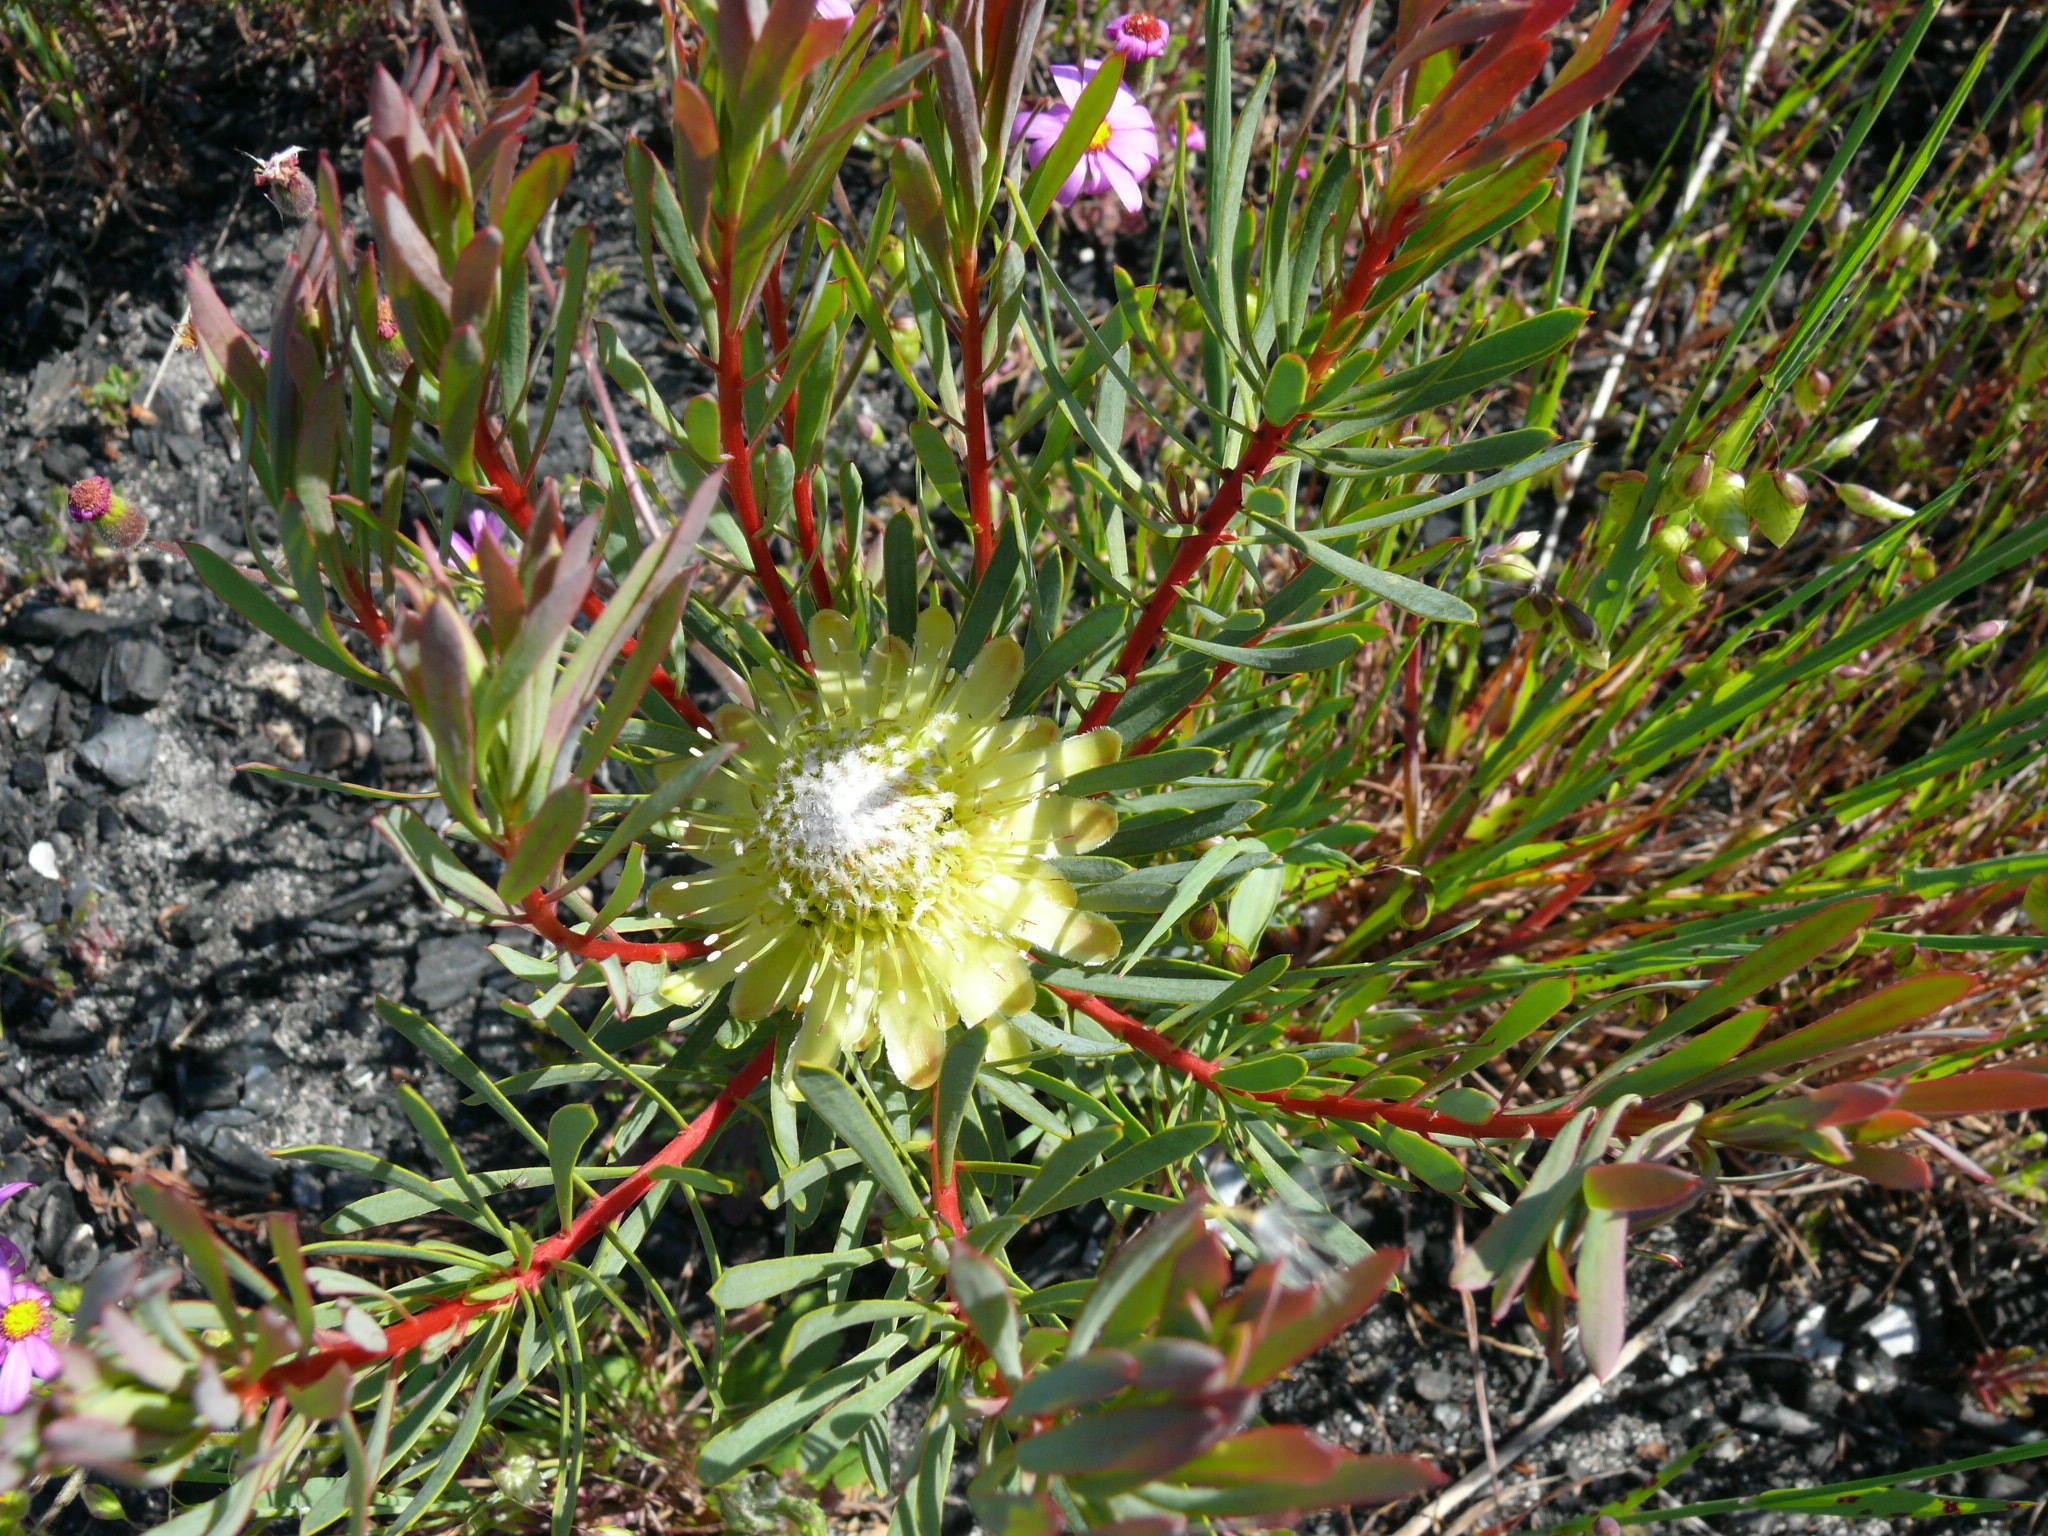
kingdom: Plantae
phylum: Tracheophyta
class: Magnoliopsida
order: Proteales
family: Proteaceae
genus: Protea
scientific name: Protea scolymocephala
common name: Thistle sugarbush
